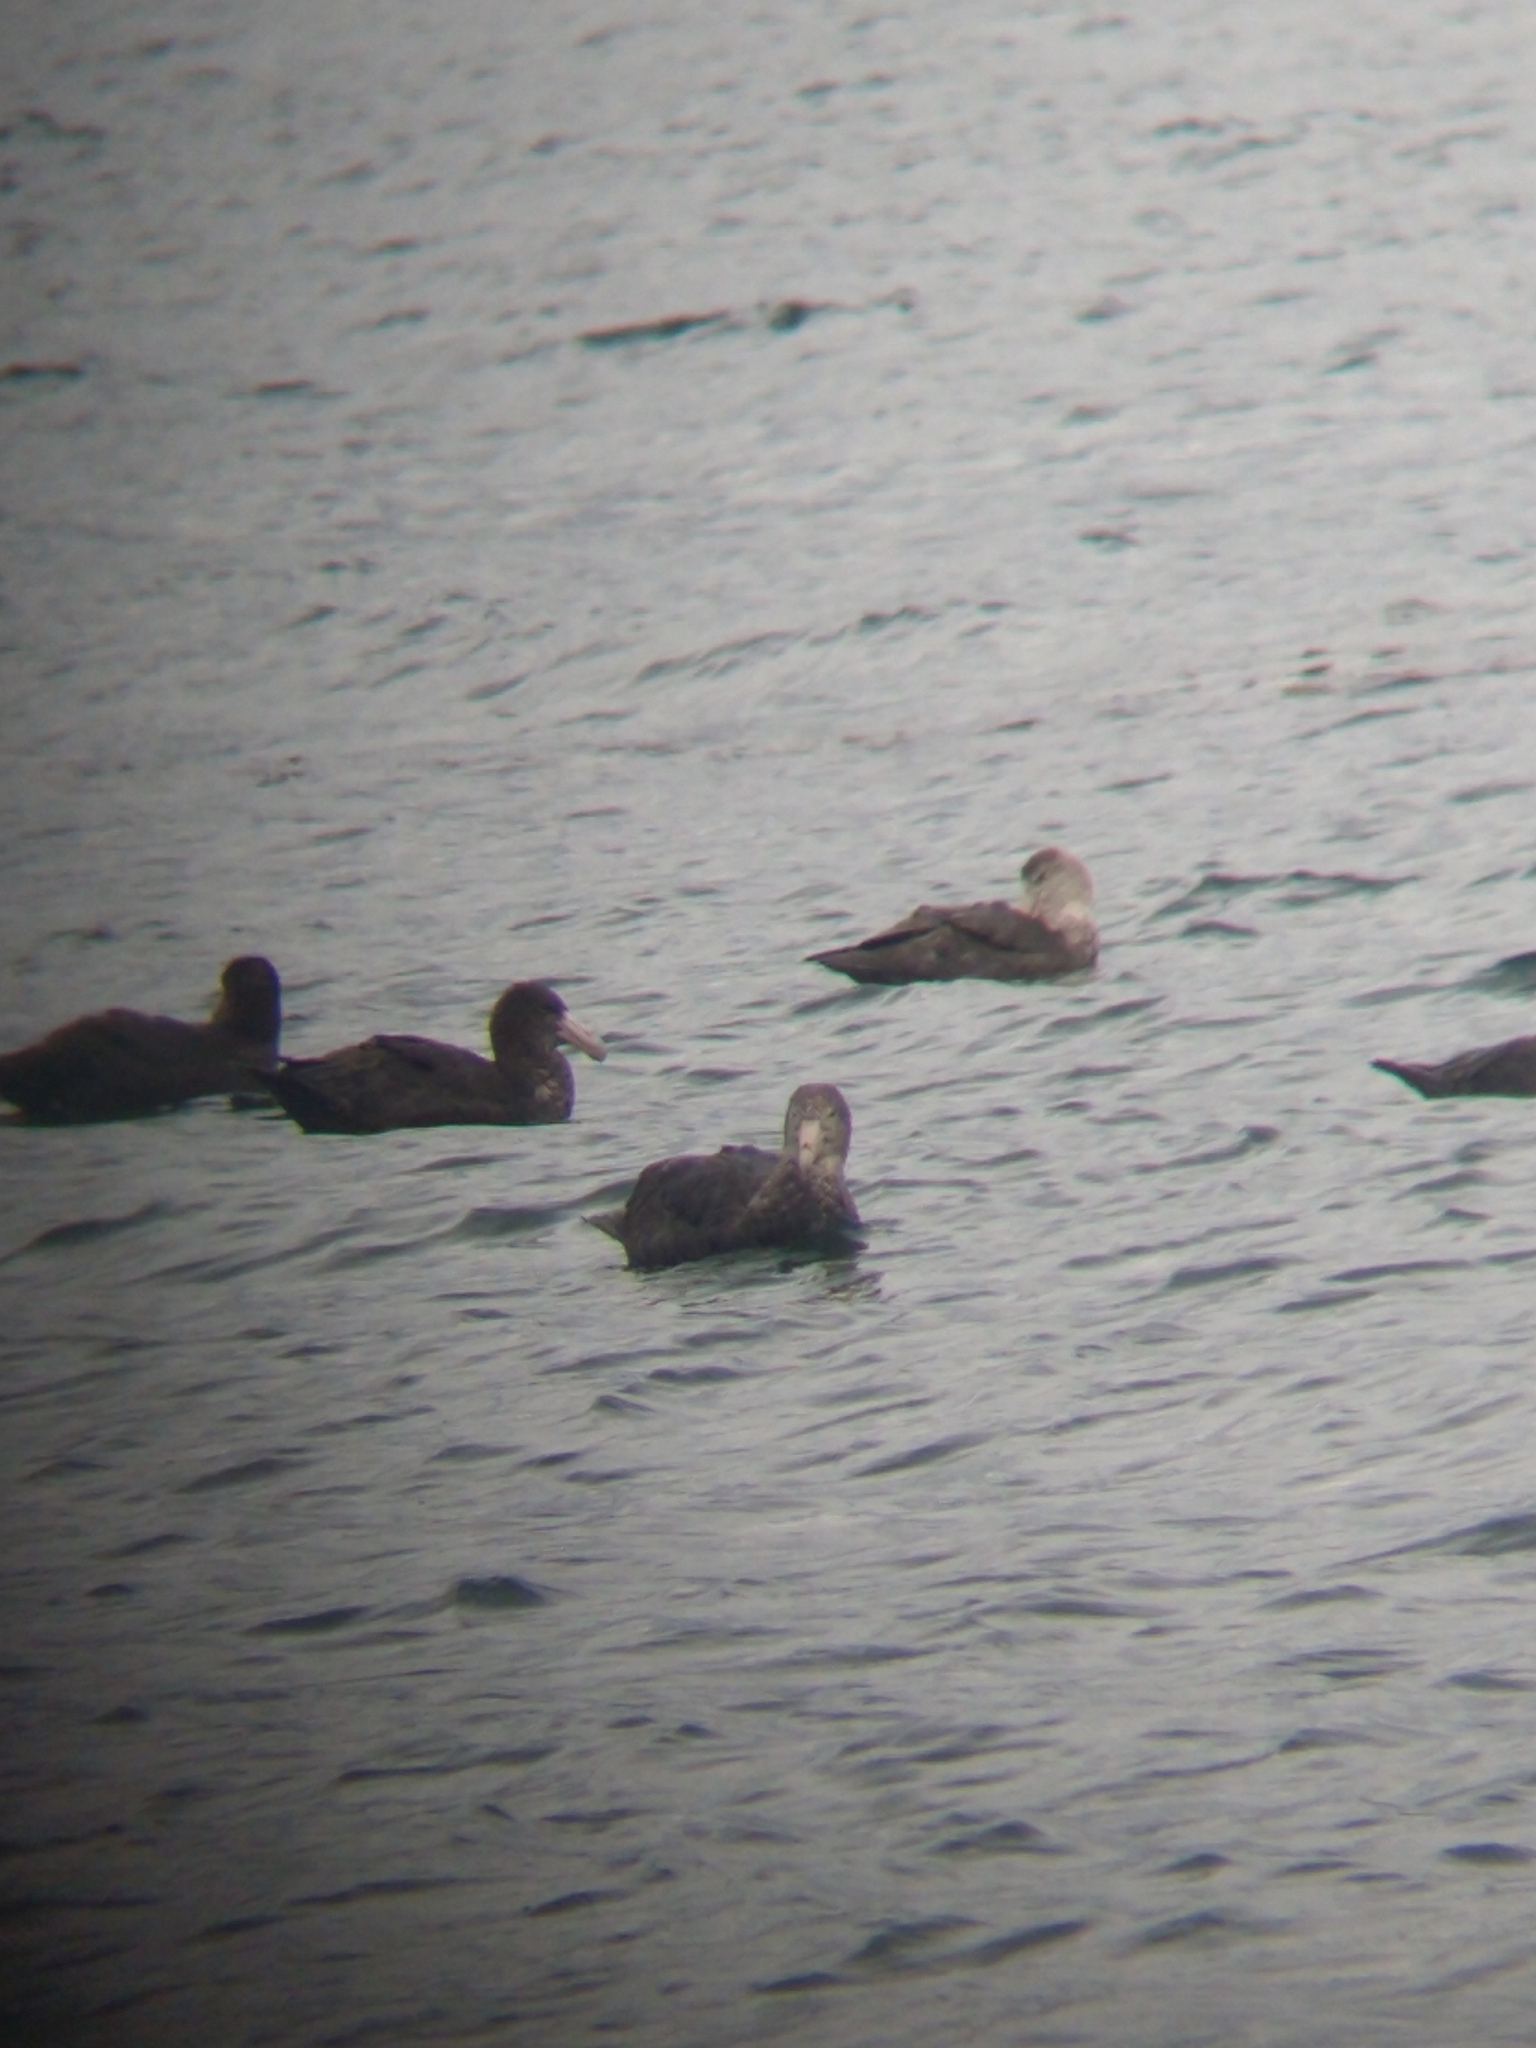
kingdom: Animalia
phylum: Chordata
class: Aves
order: Procellariiformes
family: Procellariidae
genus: Macronectes
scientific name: Macronectes giganteus
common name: Southern giant petrel
